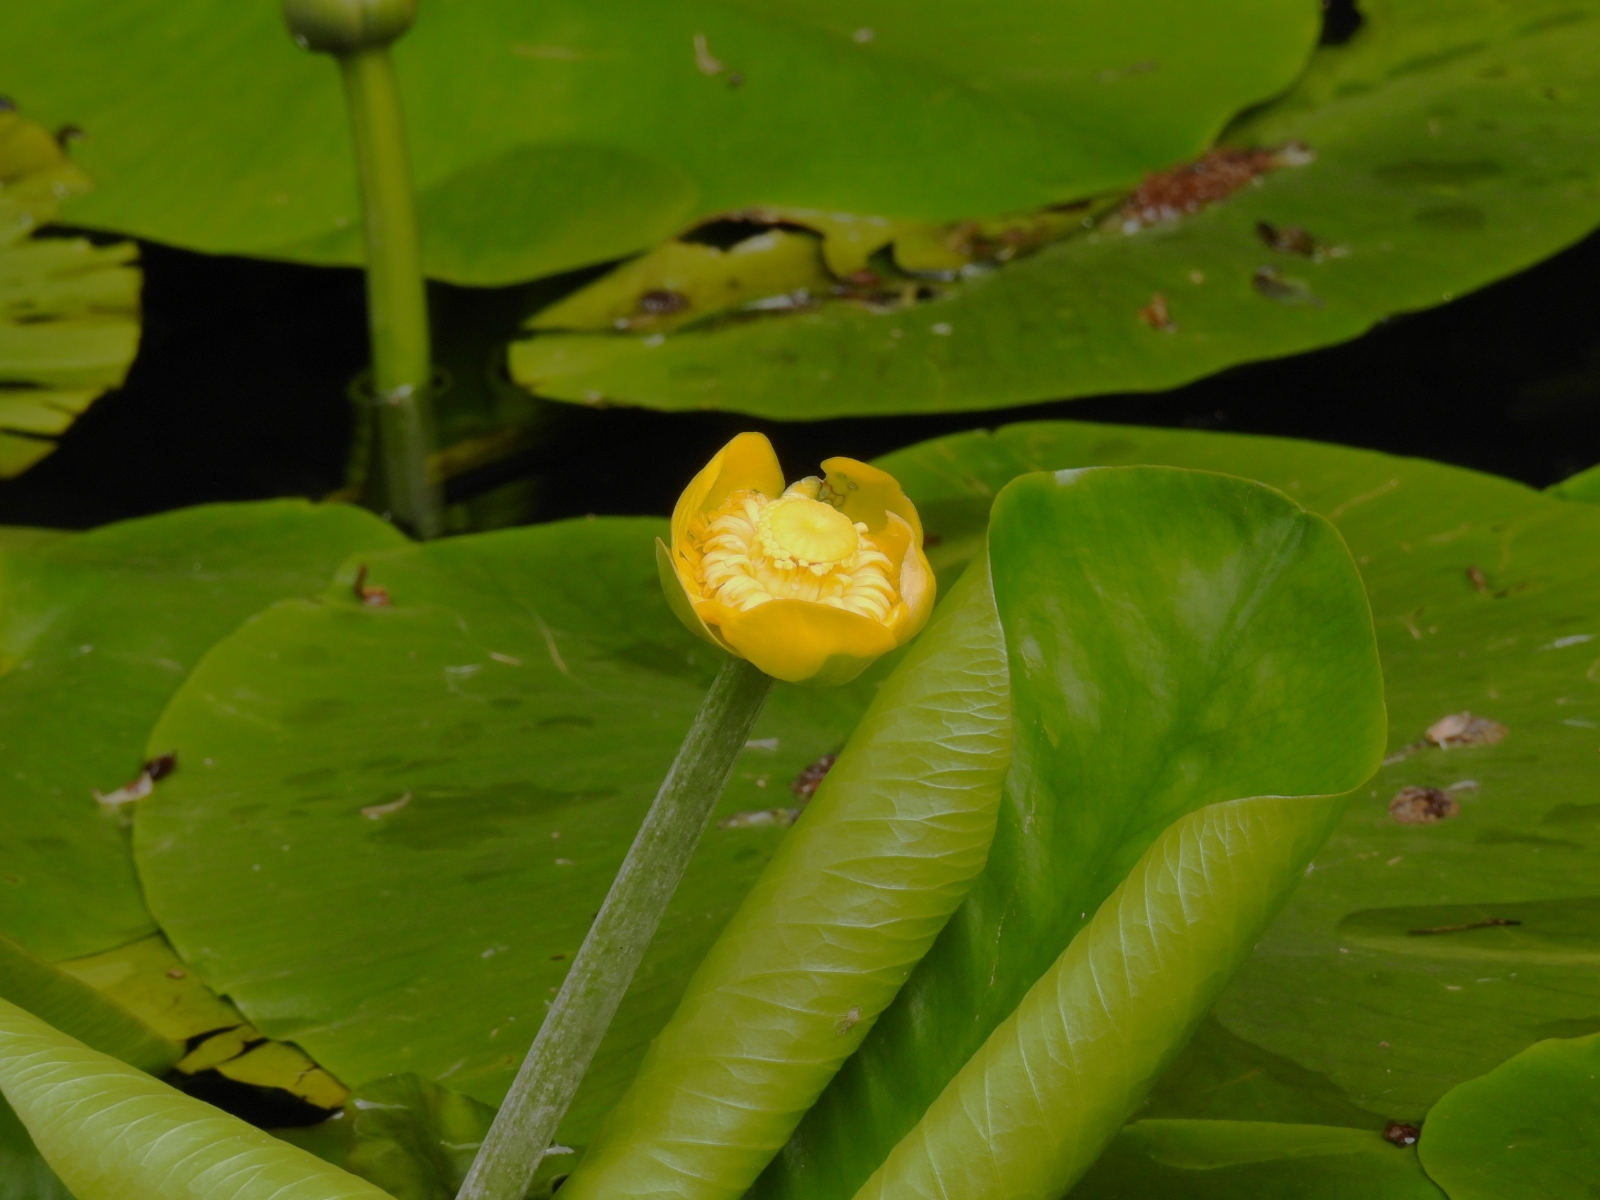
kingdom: Plantae
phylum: Tracheophyta
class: Magnoliopsida
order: Nymphaeales
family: Nymphaeaceae
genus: Nuphar
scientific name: Nuphar lutea
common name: Yellow water-lily
